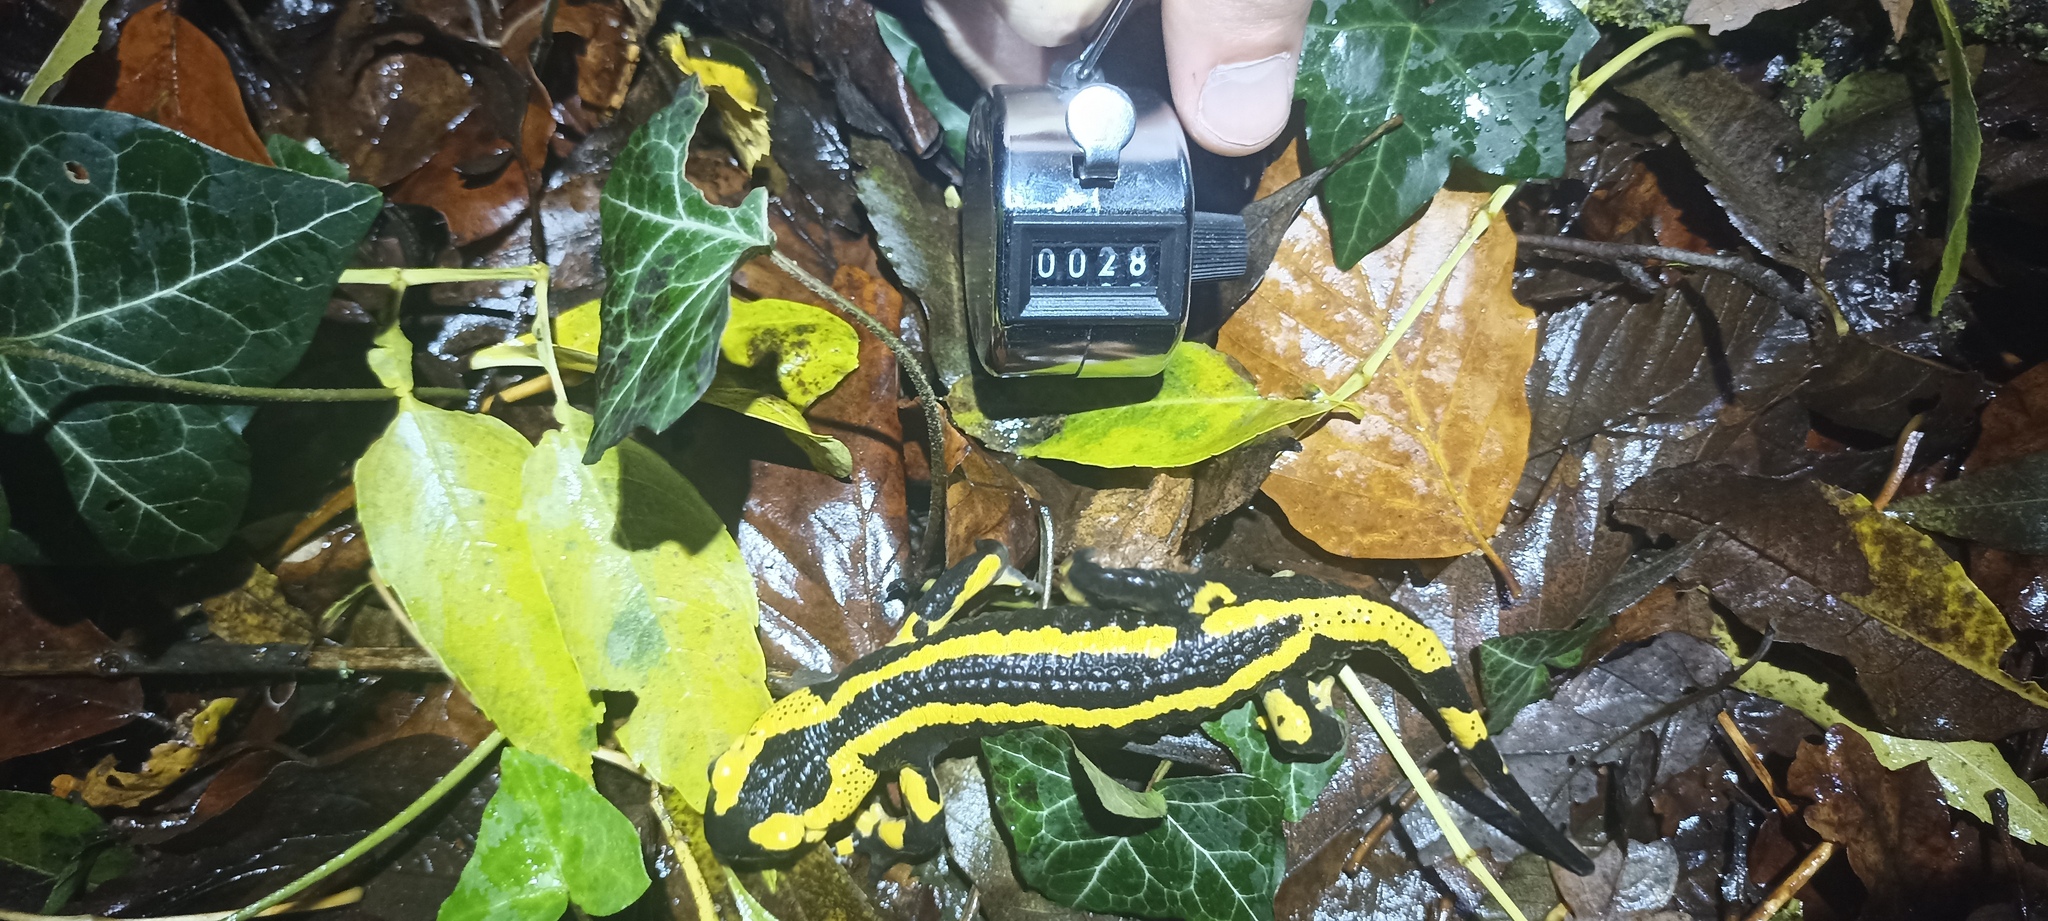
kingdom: Animalia
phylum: Chordata
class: Amphibia
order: Caudata
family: Salamandridae
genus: Salamandra
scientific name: Salamandra salamandra
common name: Fire salamander
